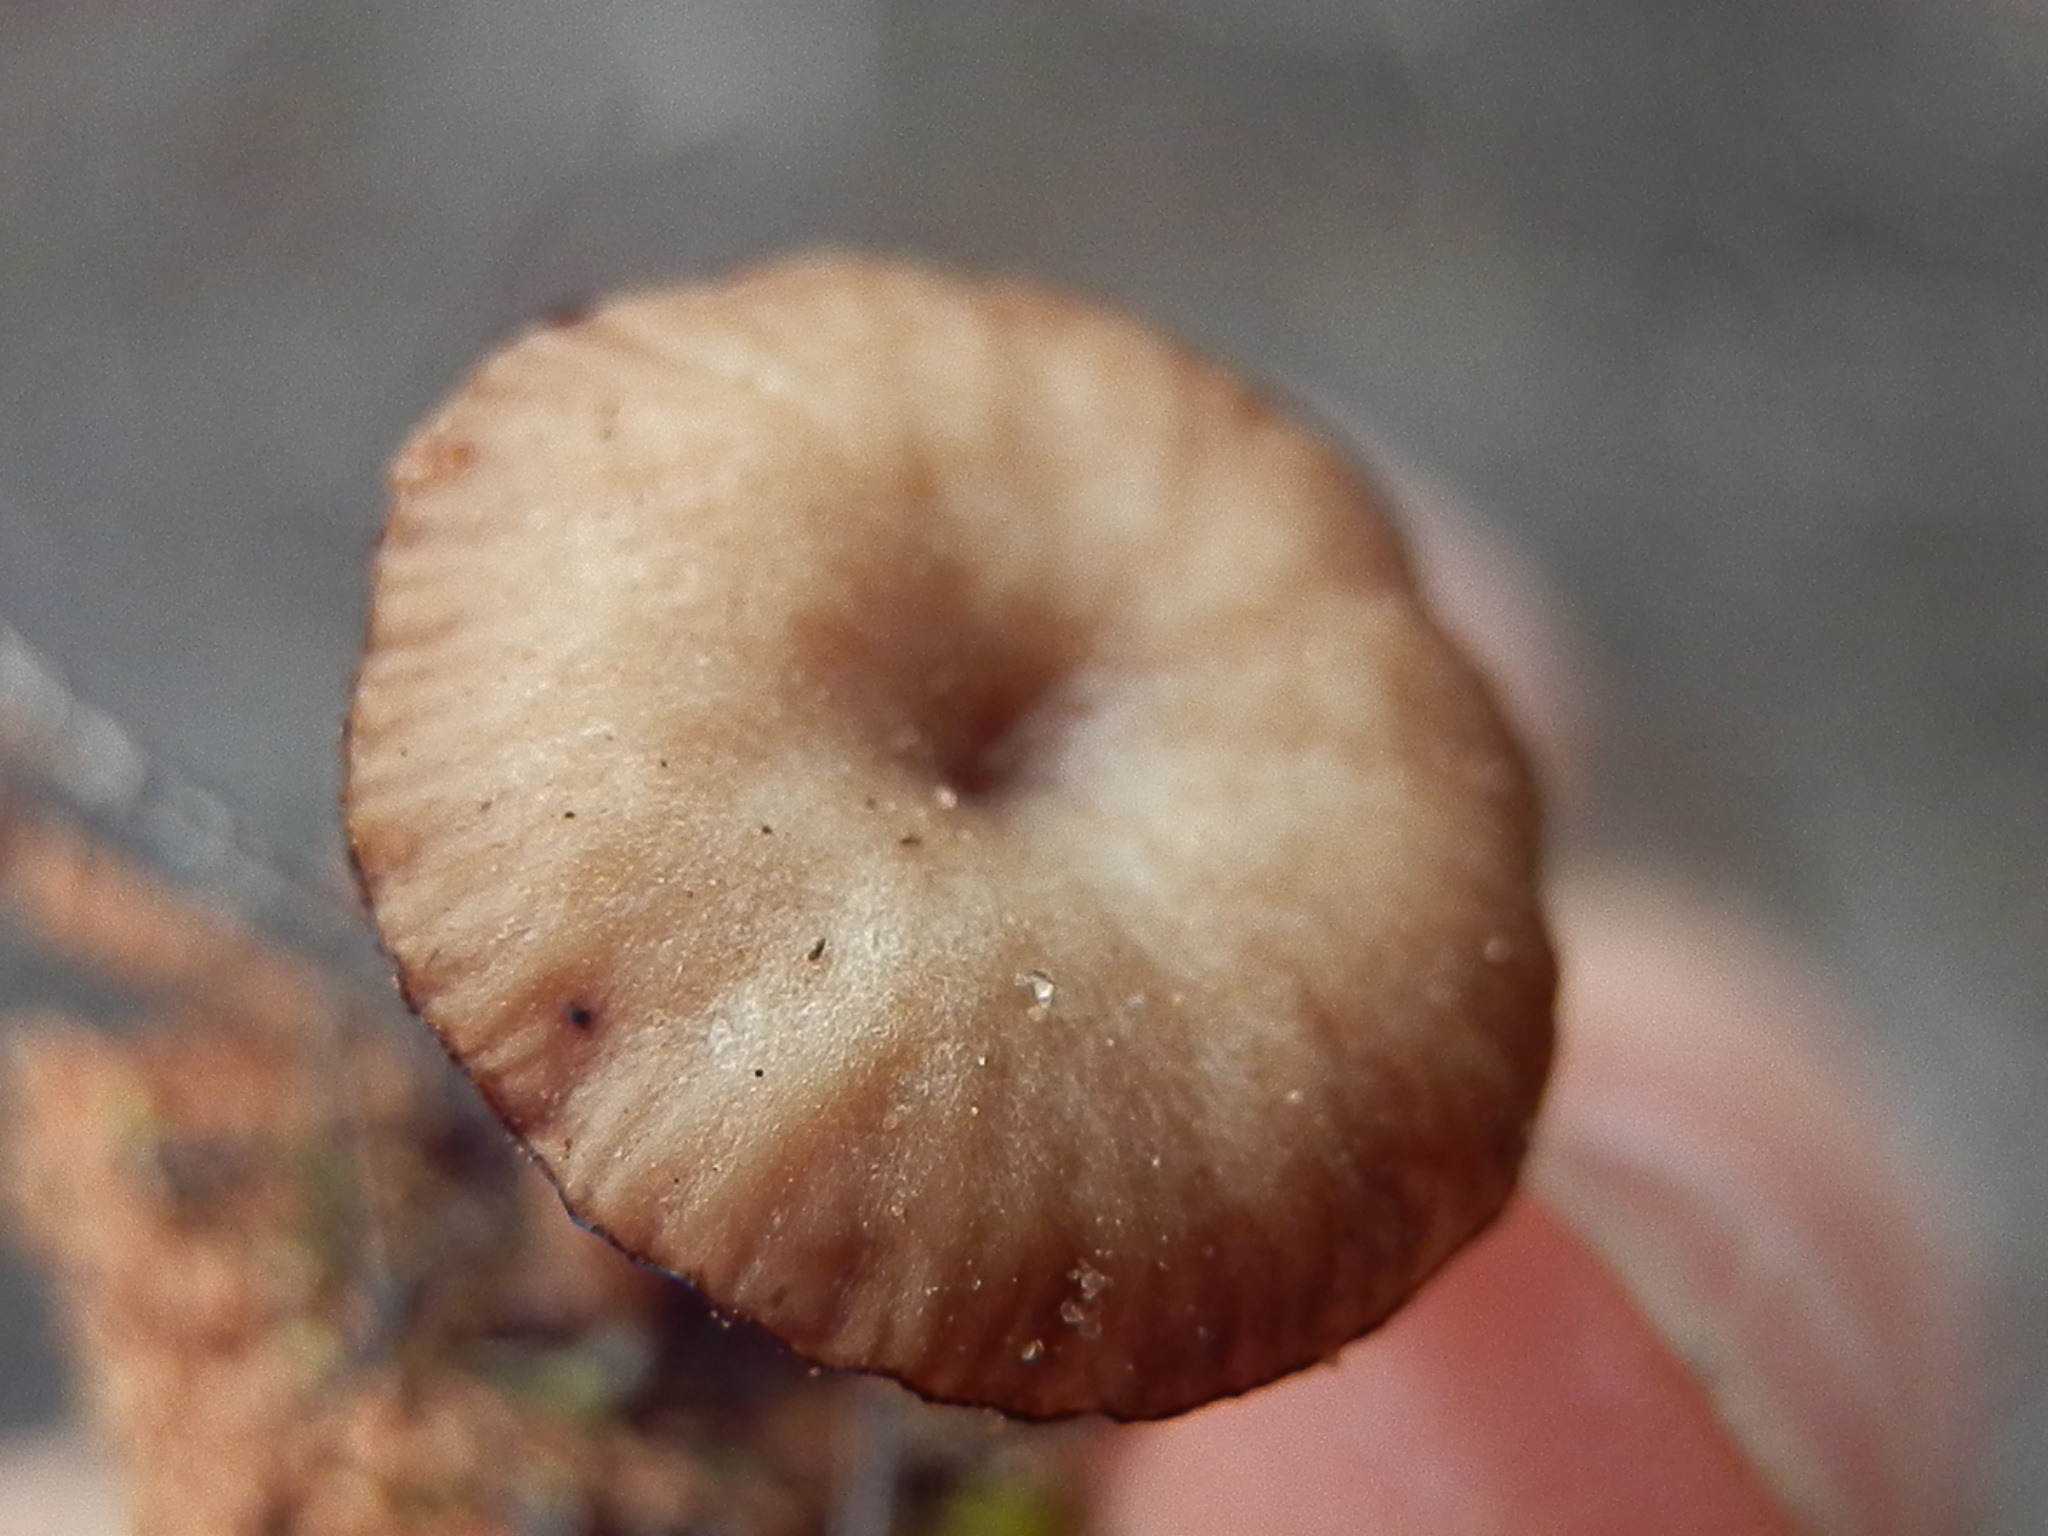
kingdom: Fungi
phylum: Basidiomycota
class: Agaricomycetes
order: Agaricales
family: Tricholomataceae
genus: Omphalina
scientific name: Omphalina pyxidata
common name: Cinnamon navel
